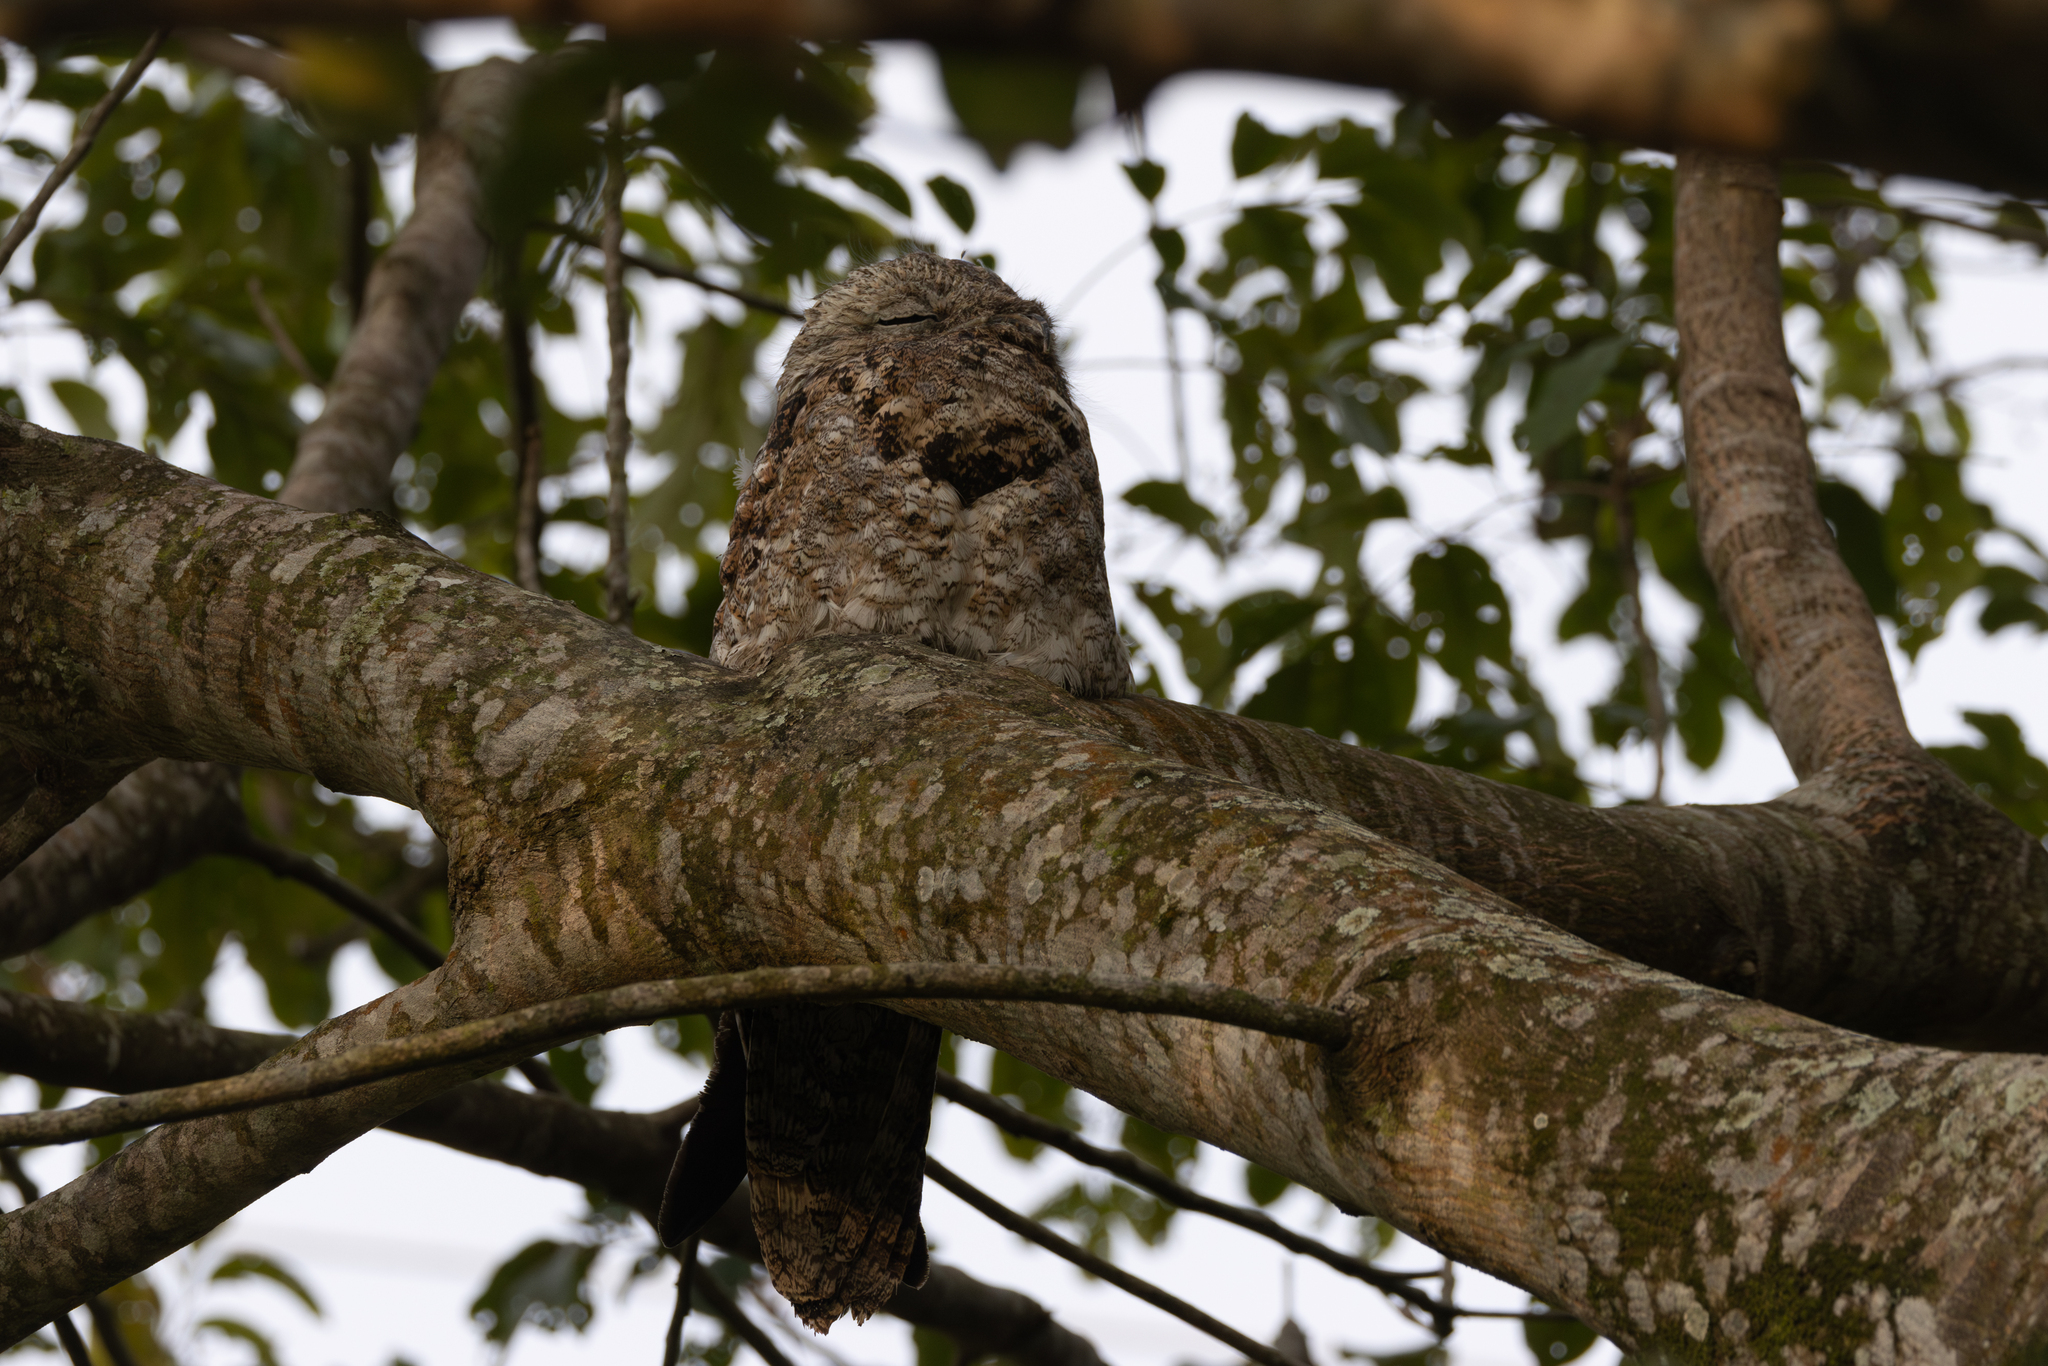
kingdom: Animalia
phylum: Chordata
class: Aves
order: Nyctibiiformes
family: Nyctibiidae
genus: Nyctibius
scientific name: Nyctibius grandis
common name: Great potoo
